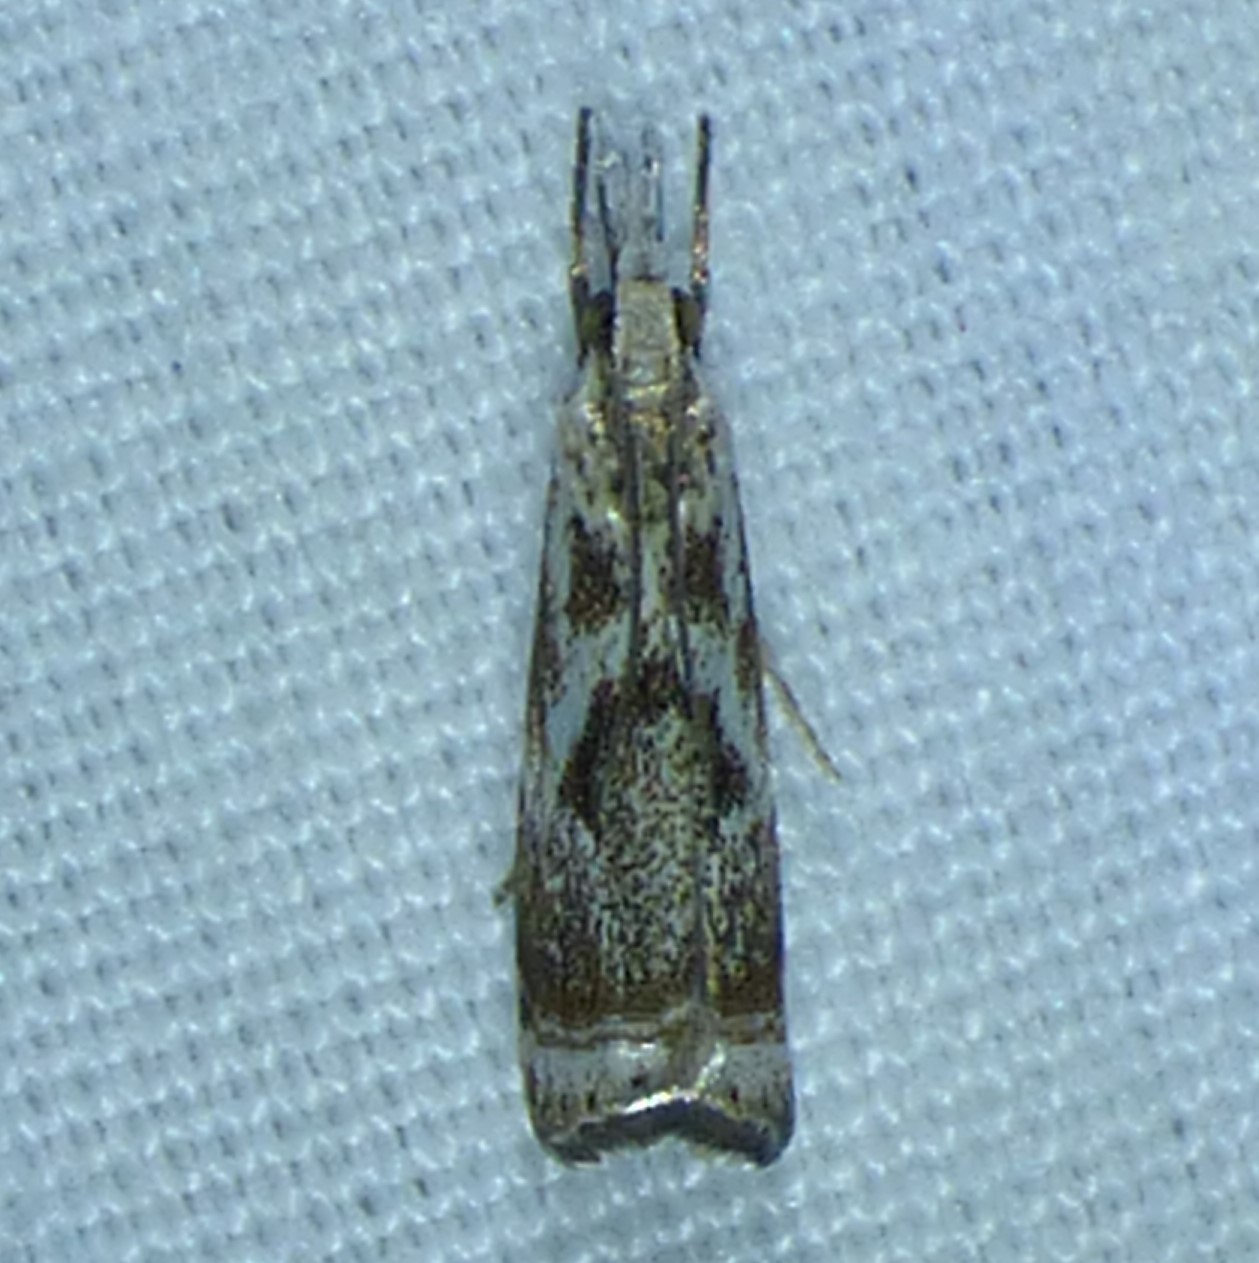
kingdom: Animalia
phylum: Arthropoda
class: Insecta
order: Lepidoptera
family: Crambidae
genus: Microcrambus
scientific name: Microcrambus elegans
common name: Elegant grass-veneer
